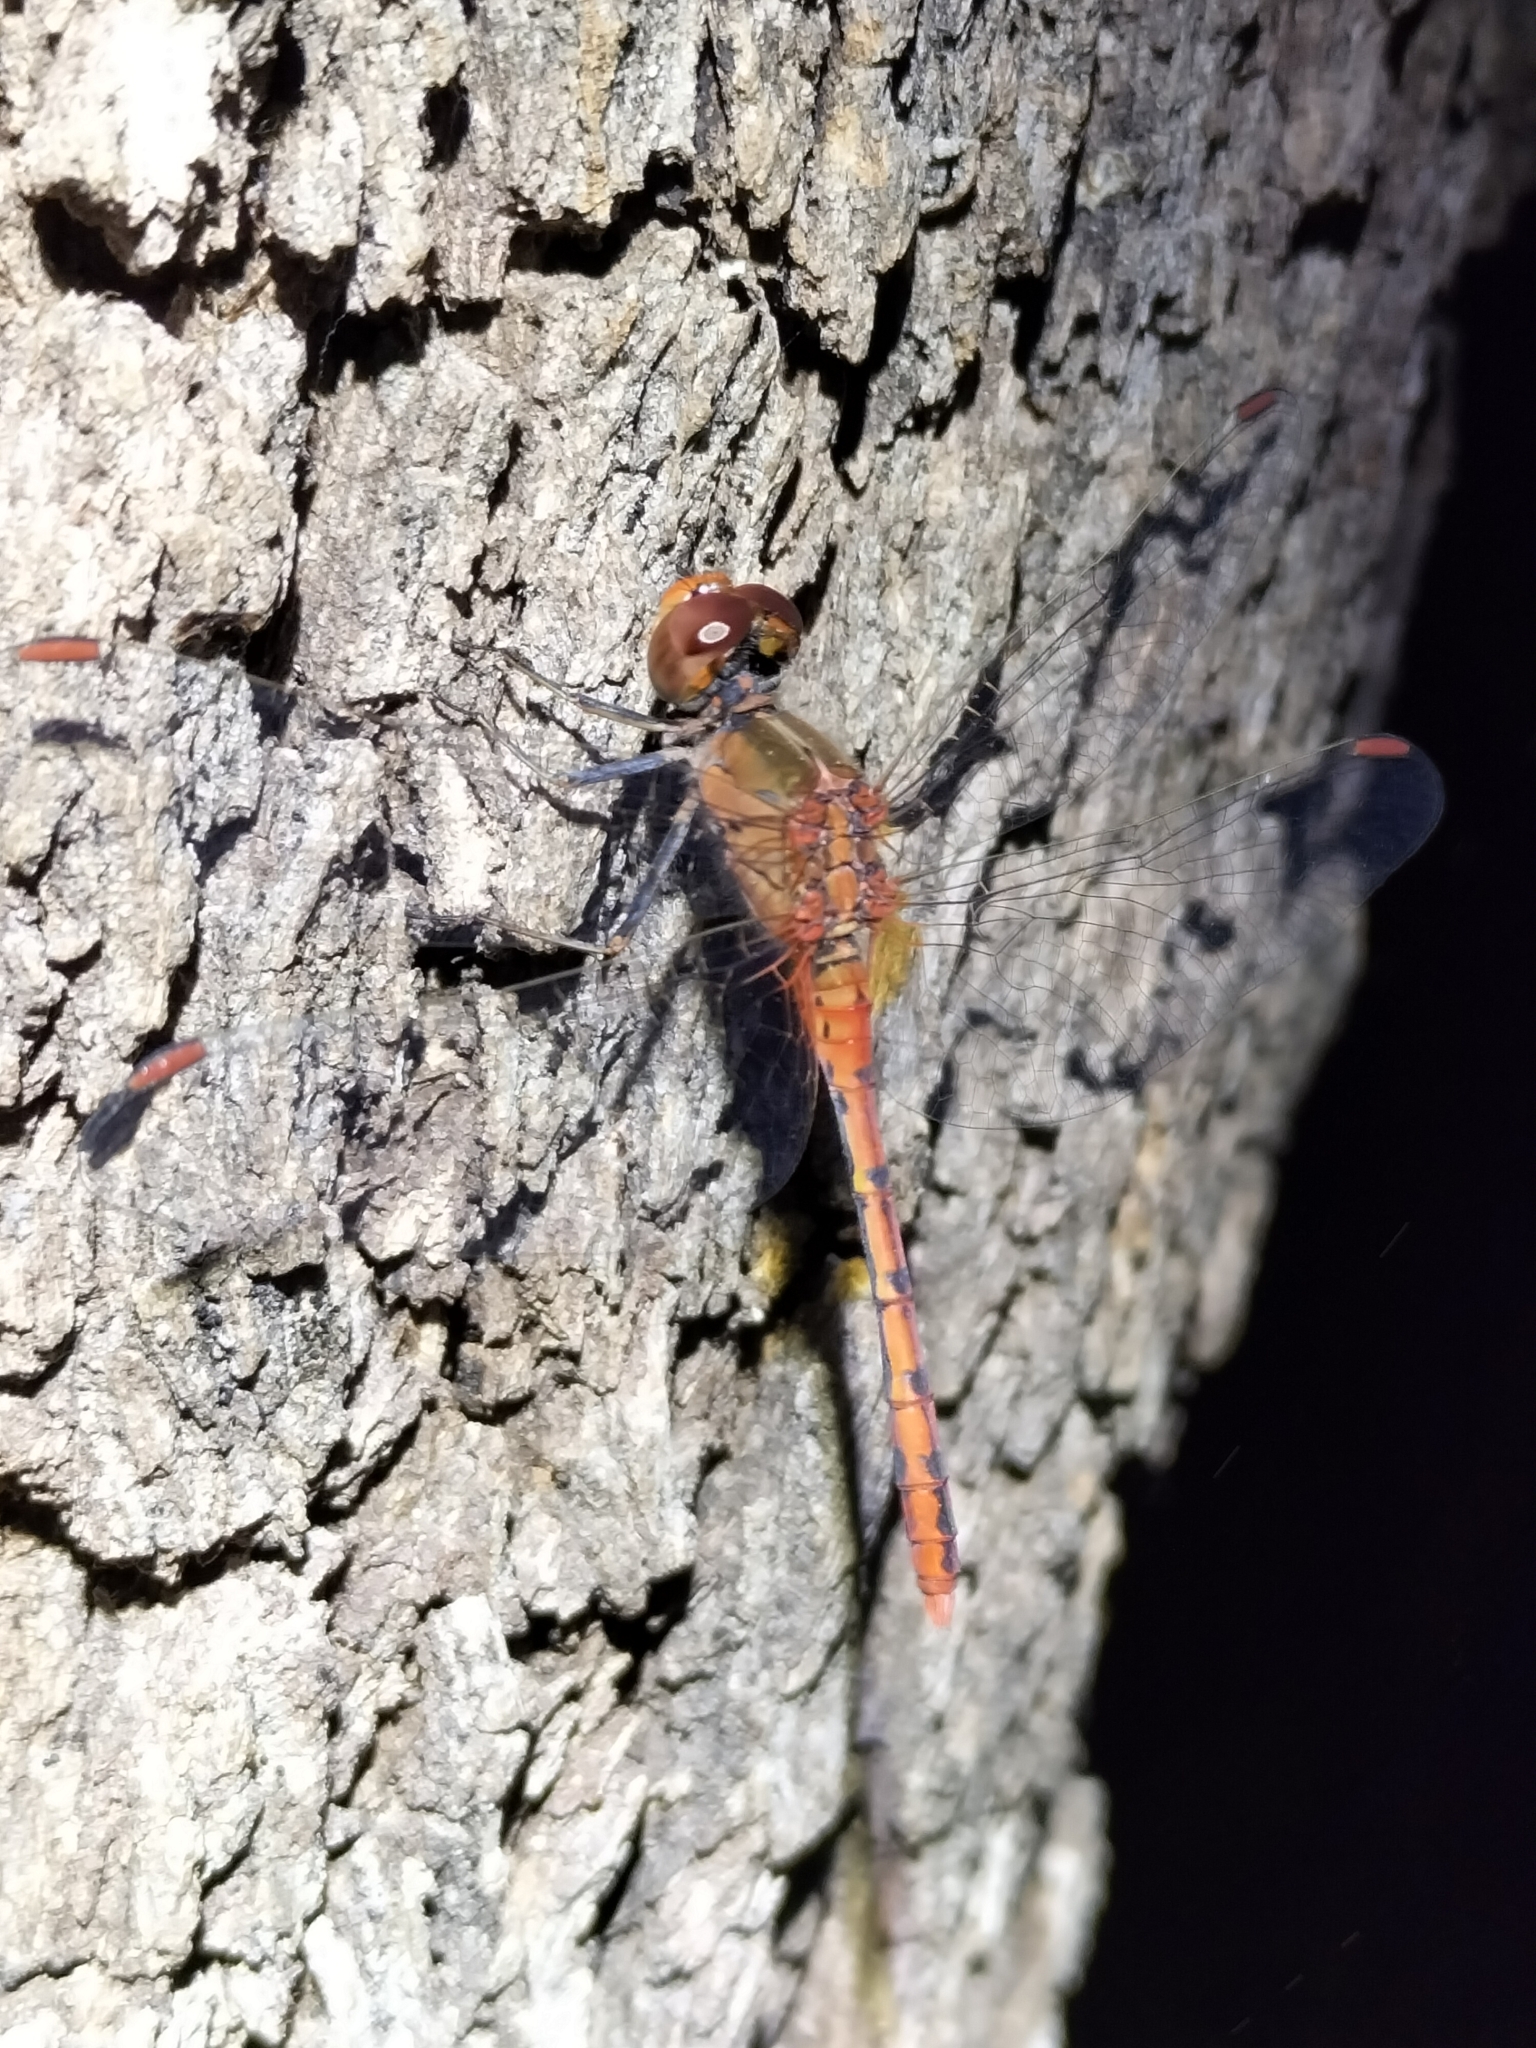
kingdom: Animalia
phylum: Arthropoda
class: Insecta
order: Odonata
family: Libellulidae
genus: Diplacodes
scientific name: Diplacodes bipunctata
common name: Red percher dragonfly
